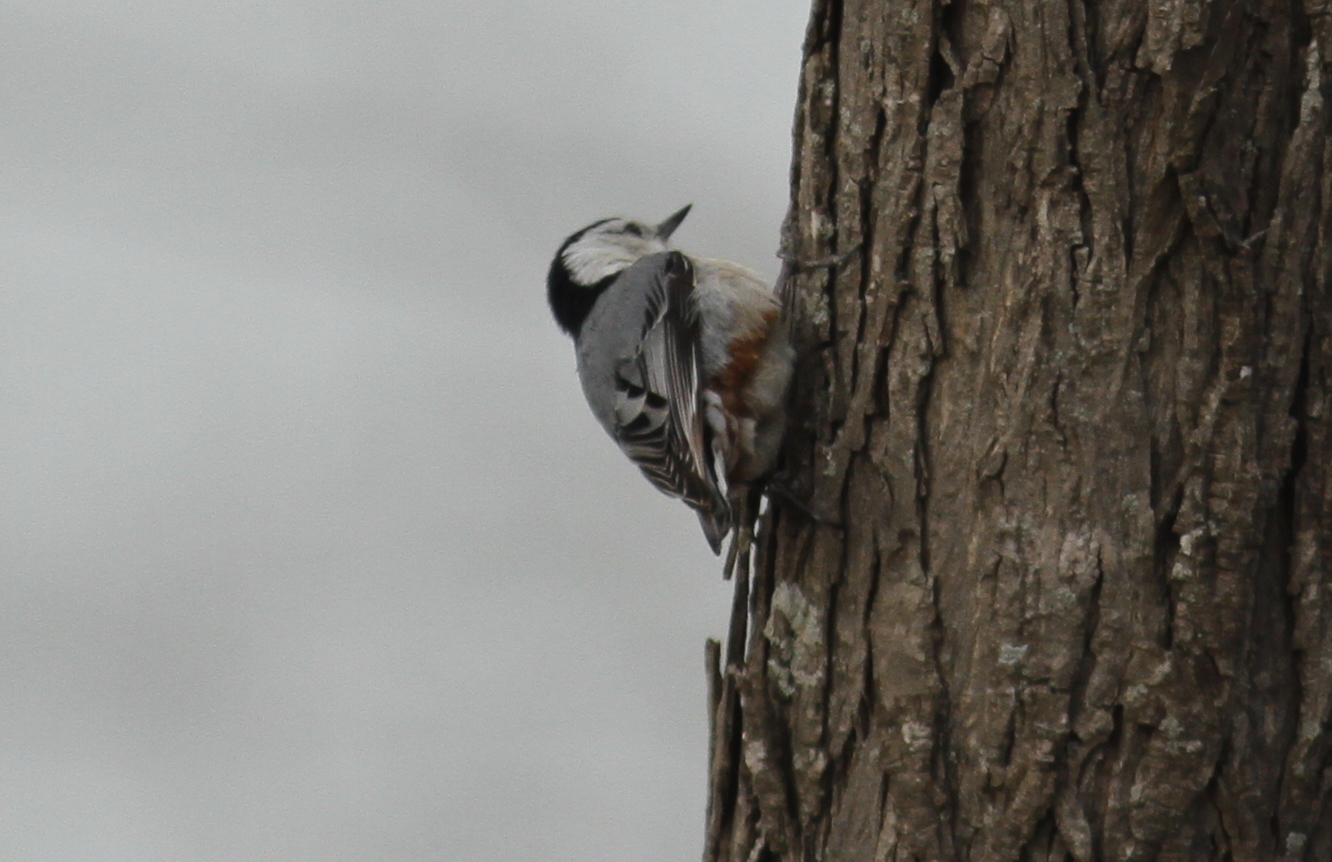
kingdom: Animalia
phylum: Chordata
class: Aves
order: Passeriformes
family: Sittidae
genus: Sitta
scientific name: Sitta carolinensis
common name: White-breasted nuthatch
